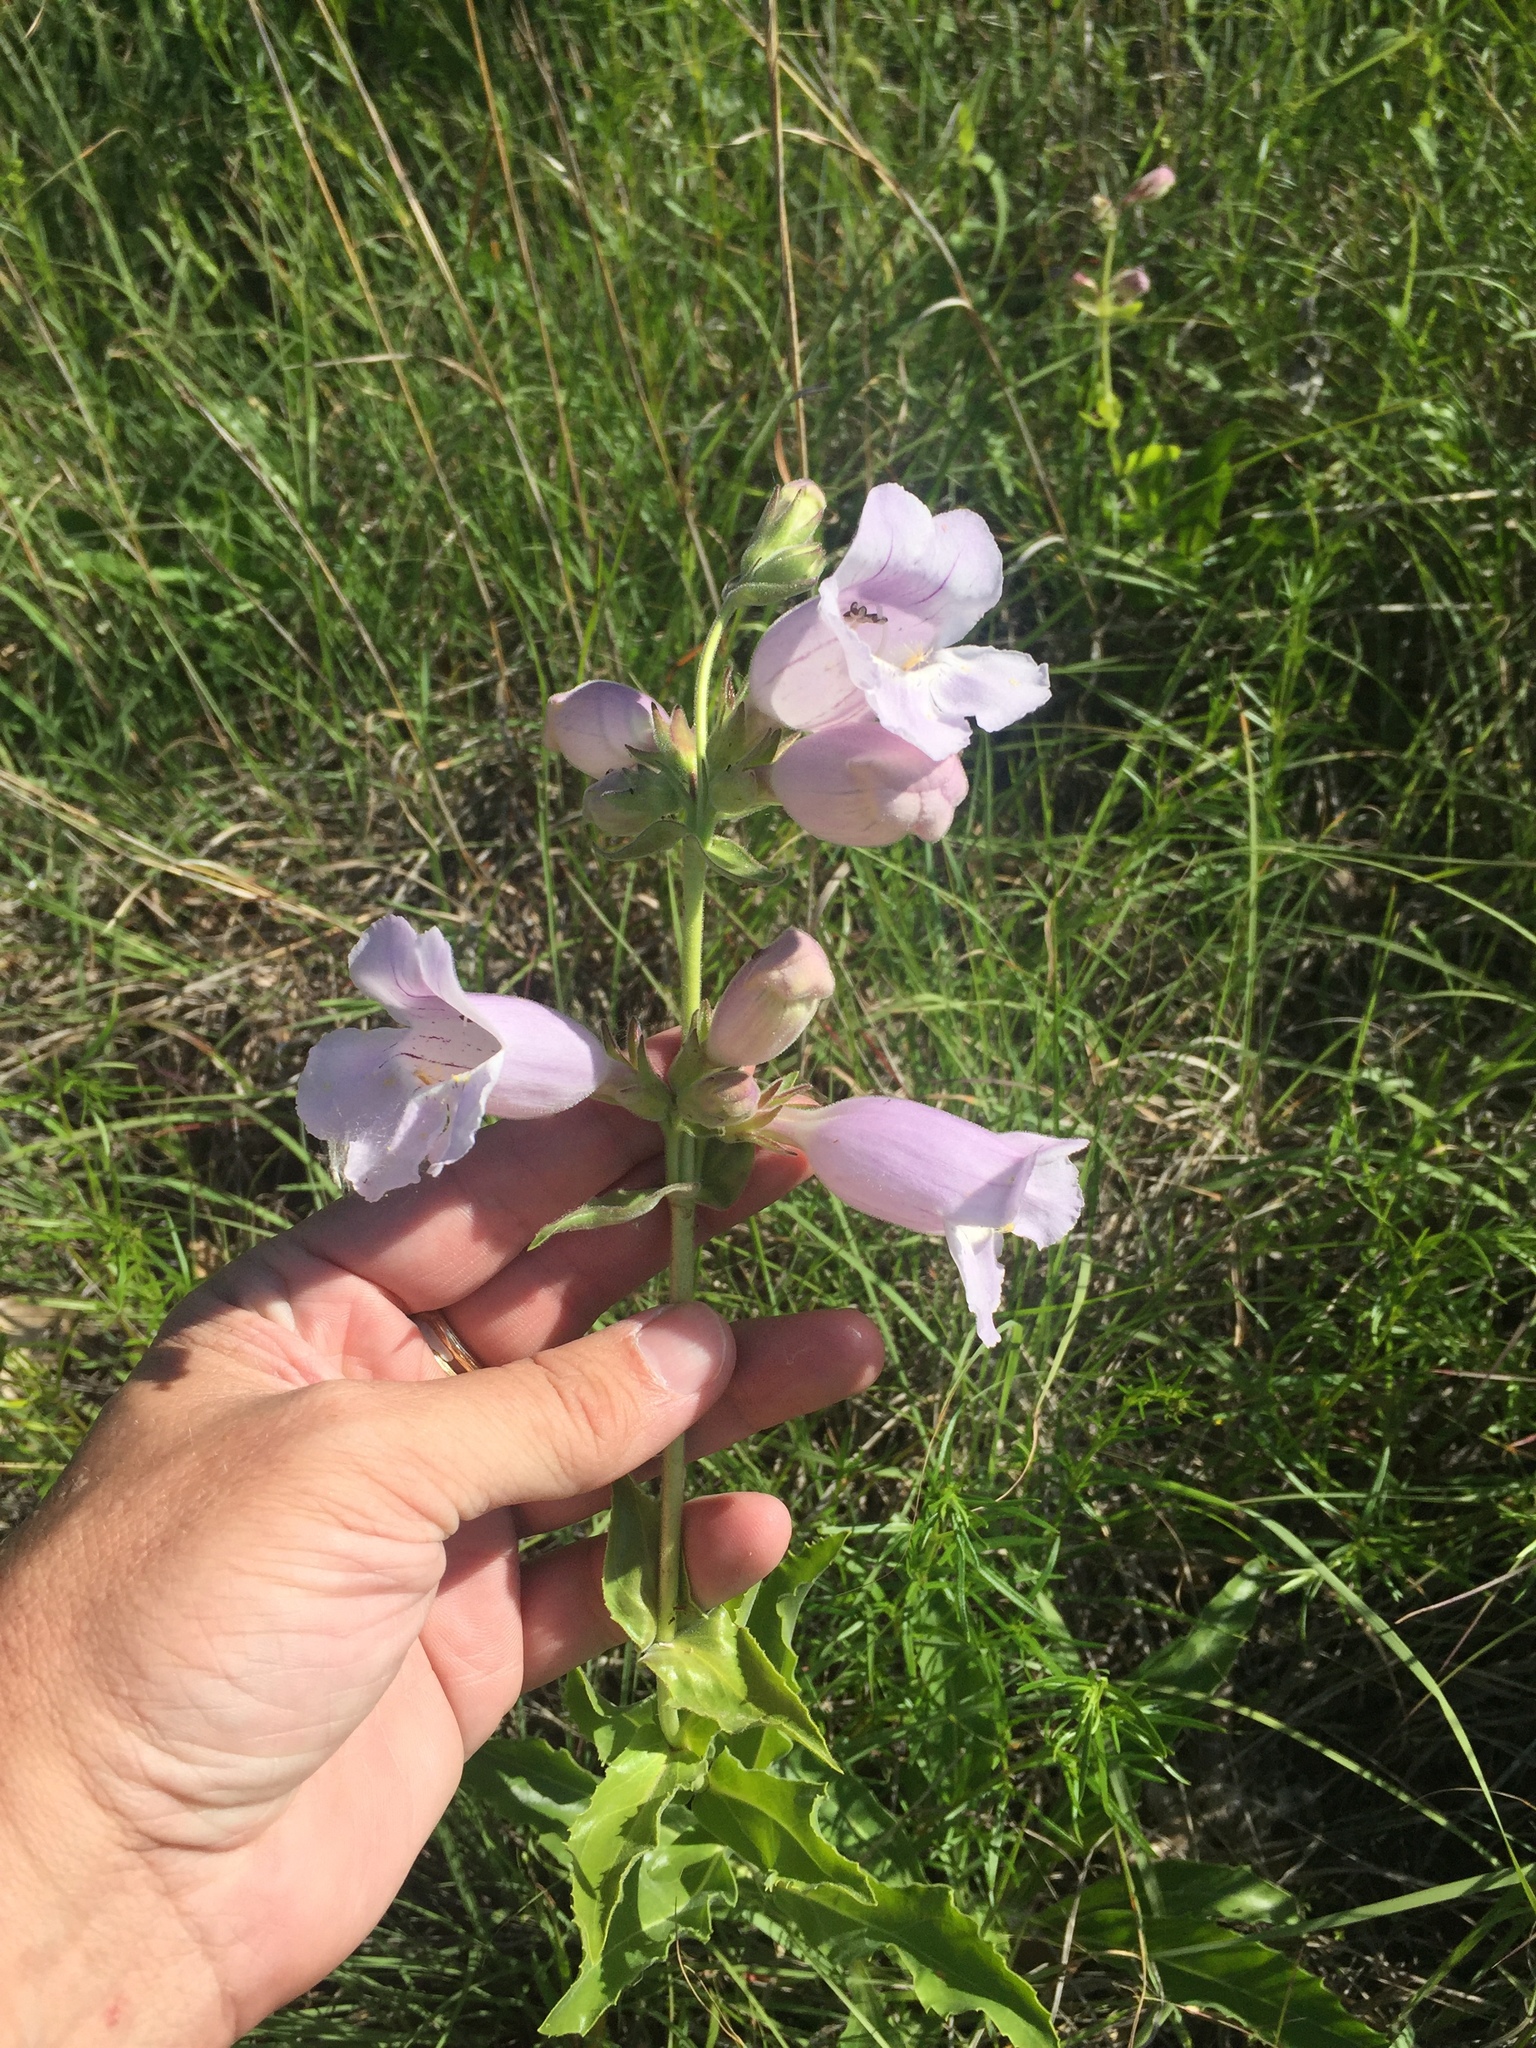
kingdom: Plantae
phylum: Tracheophyta
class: Magnoliopsida
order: Lamiales
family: Plantaginaceae
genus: Penstemon
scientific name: Penstemon cobaea
